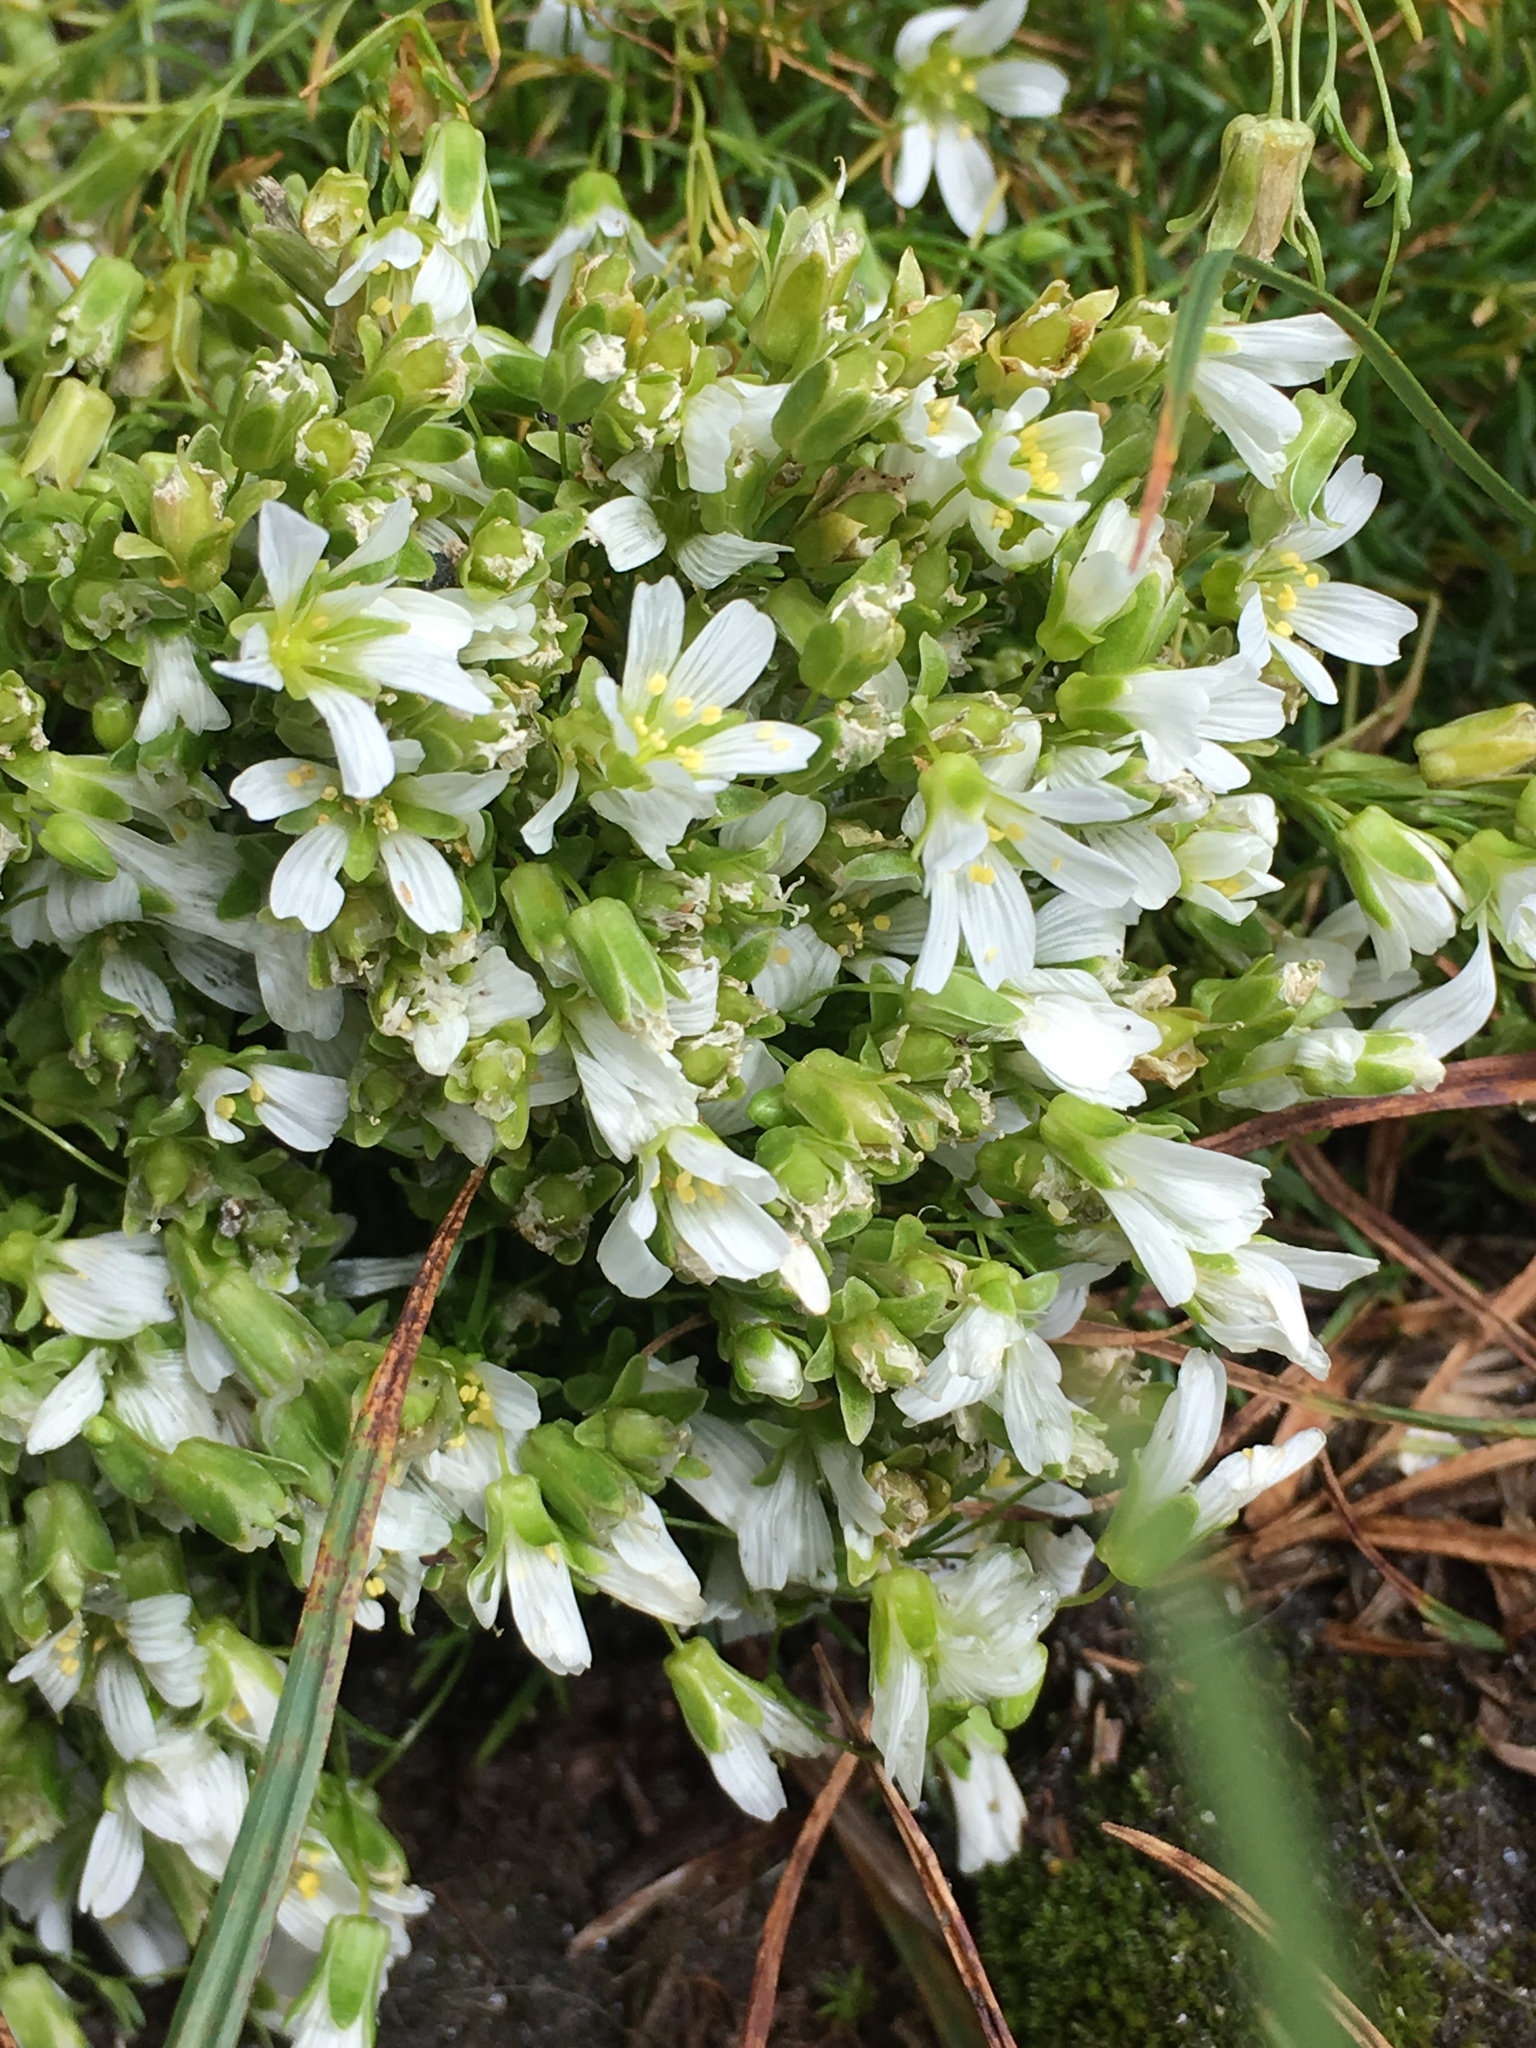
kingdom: Plantae
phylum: Tracheophyta
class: Magnoliopsida
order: Caryophyllales
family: Caryophyllaceae
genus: Geocarpon
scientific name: Geocarpon groenlandicum
